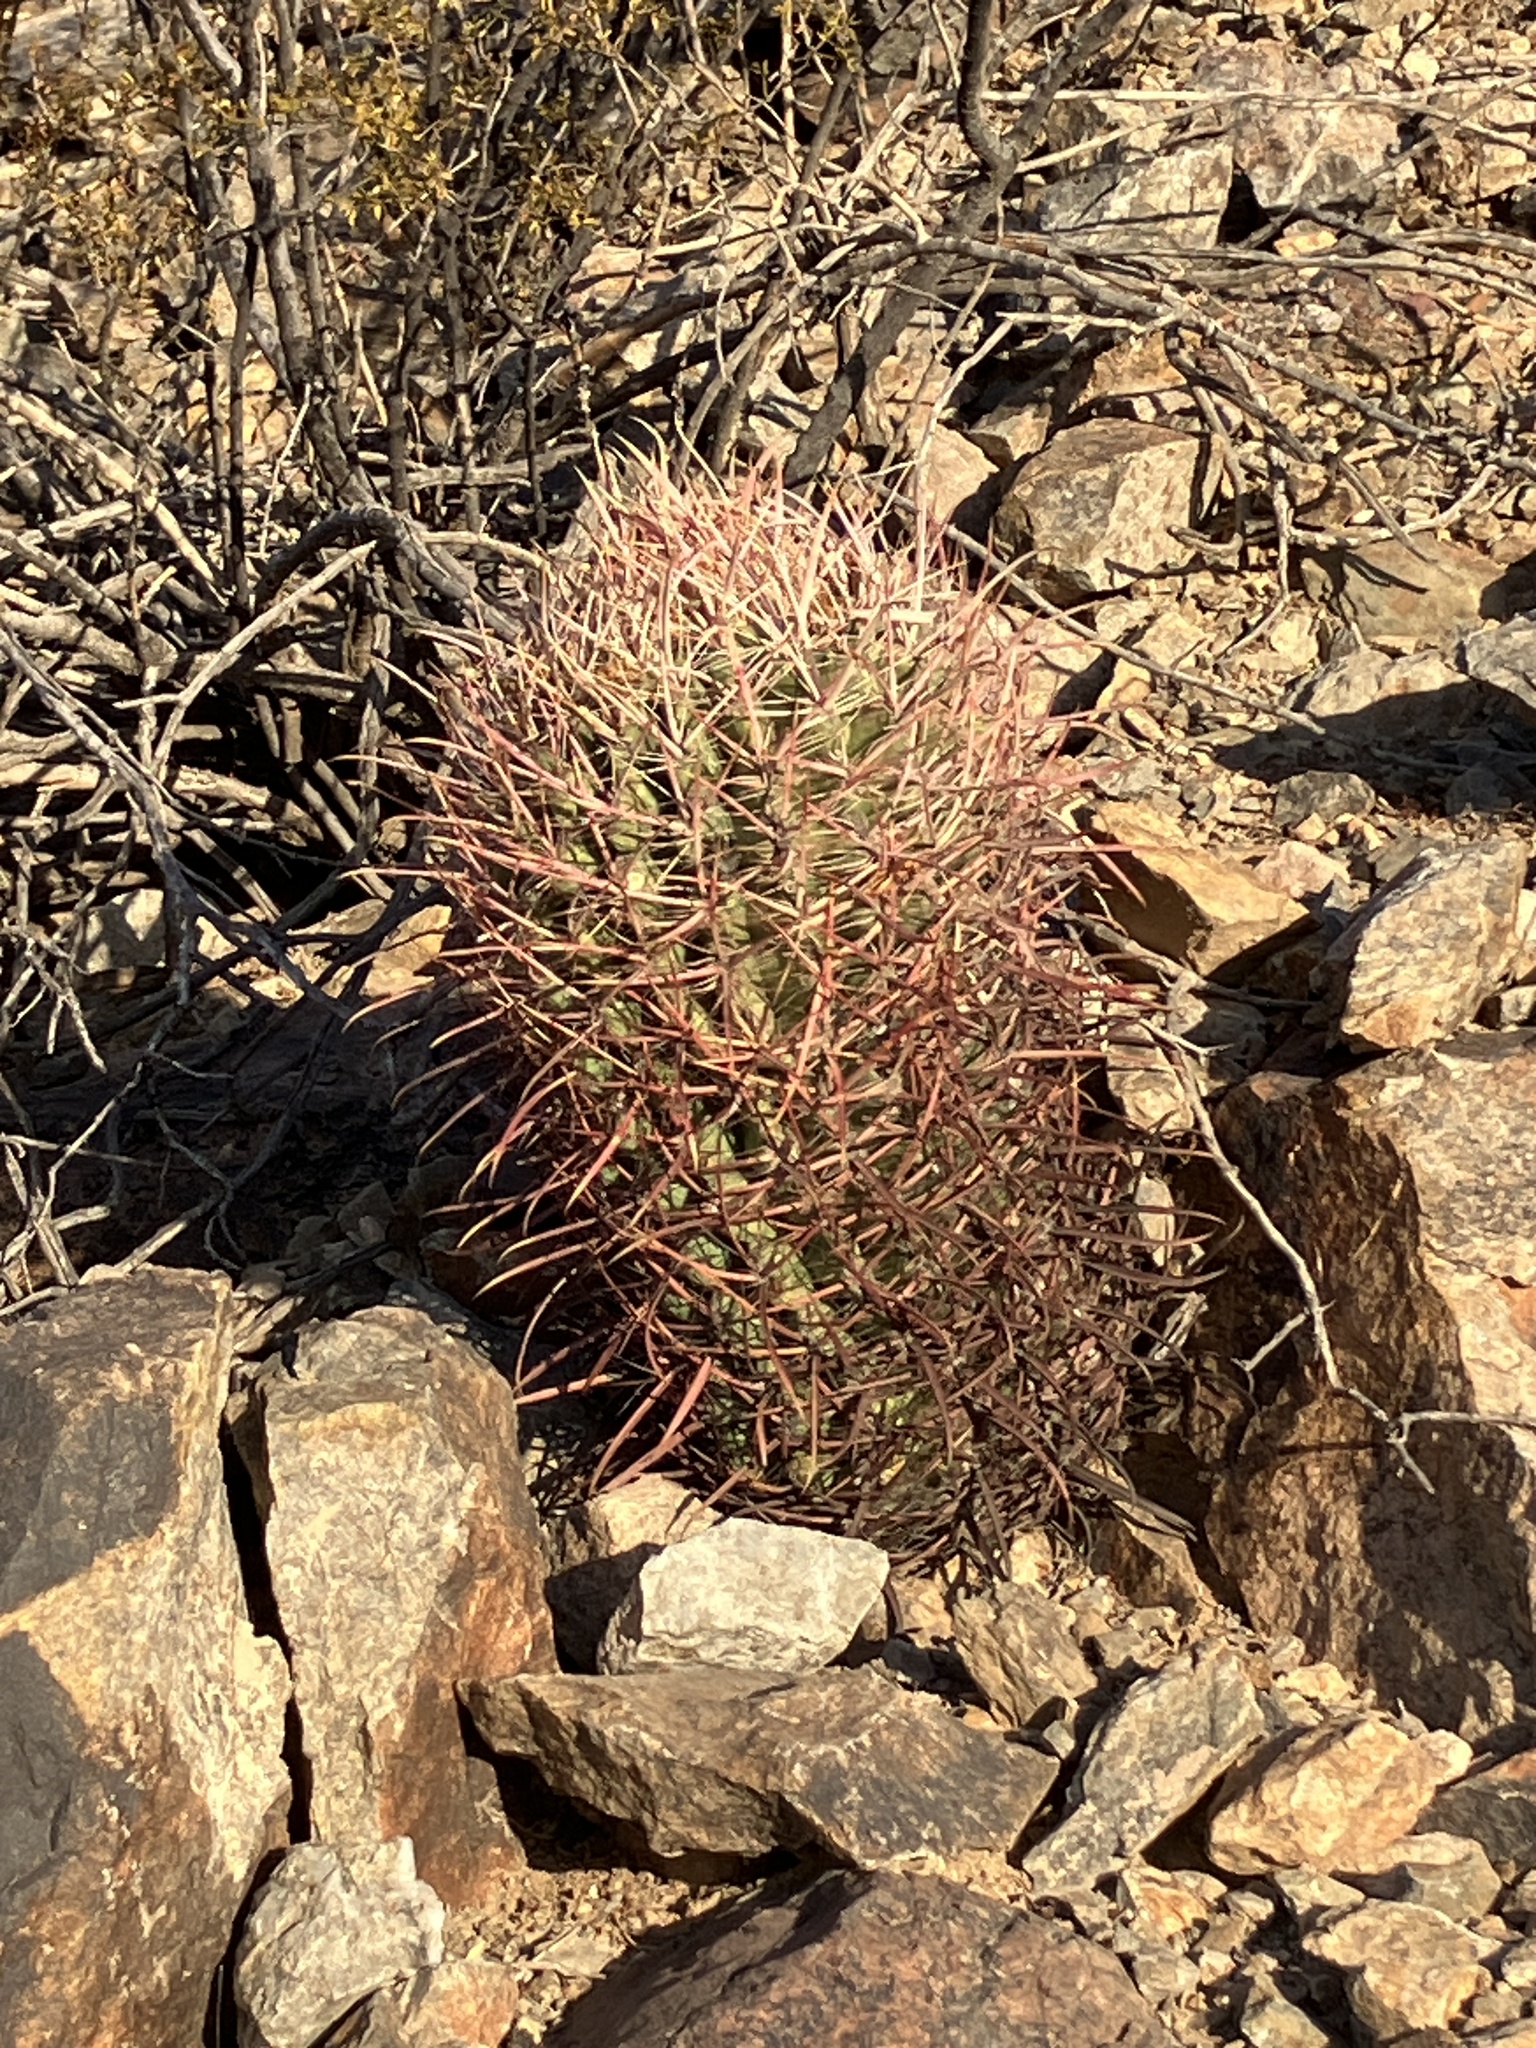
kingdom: Plantae
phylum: Tracheophyta
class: Magnoliopsida
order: Caryophyllales
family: Cactaceae
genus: Ferocactus
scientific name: Ferocactus cylindraceus
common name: California barrel cactus
